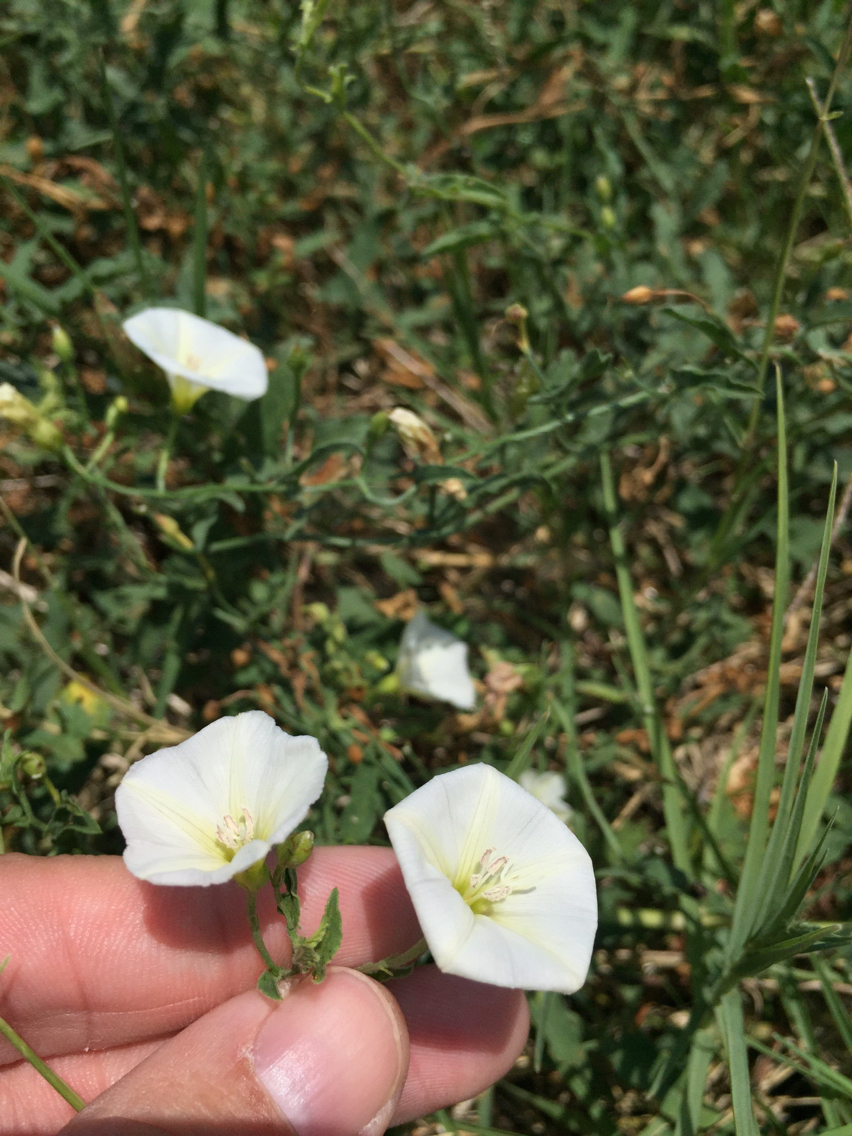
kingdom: Plantae
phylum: Tracheophyta
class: Magnoliopsida
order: Solanales
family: Convolvulaceae
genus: Convolvulus
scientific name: Convolvulus arvensis
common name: Field bindweed
